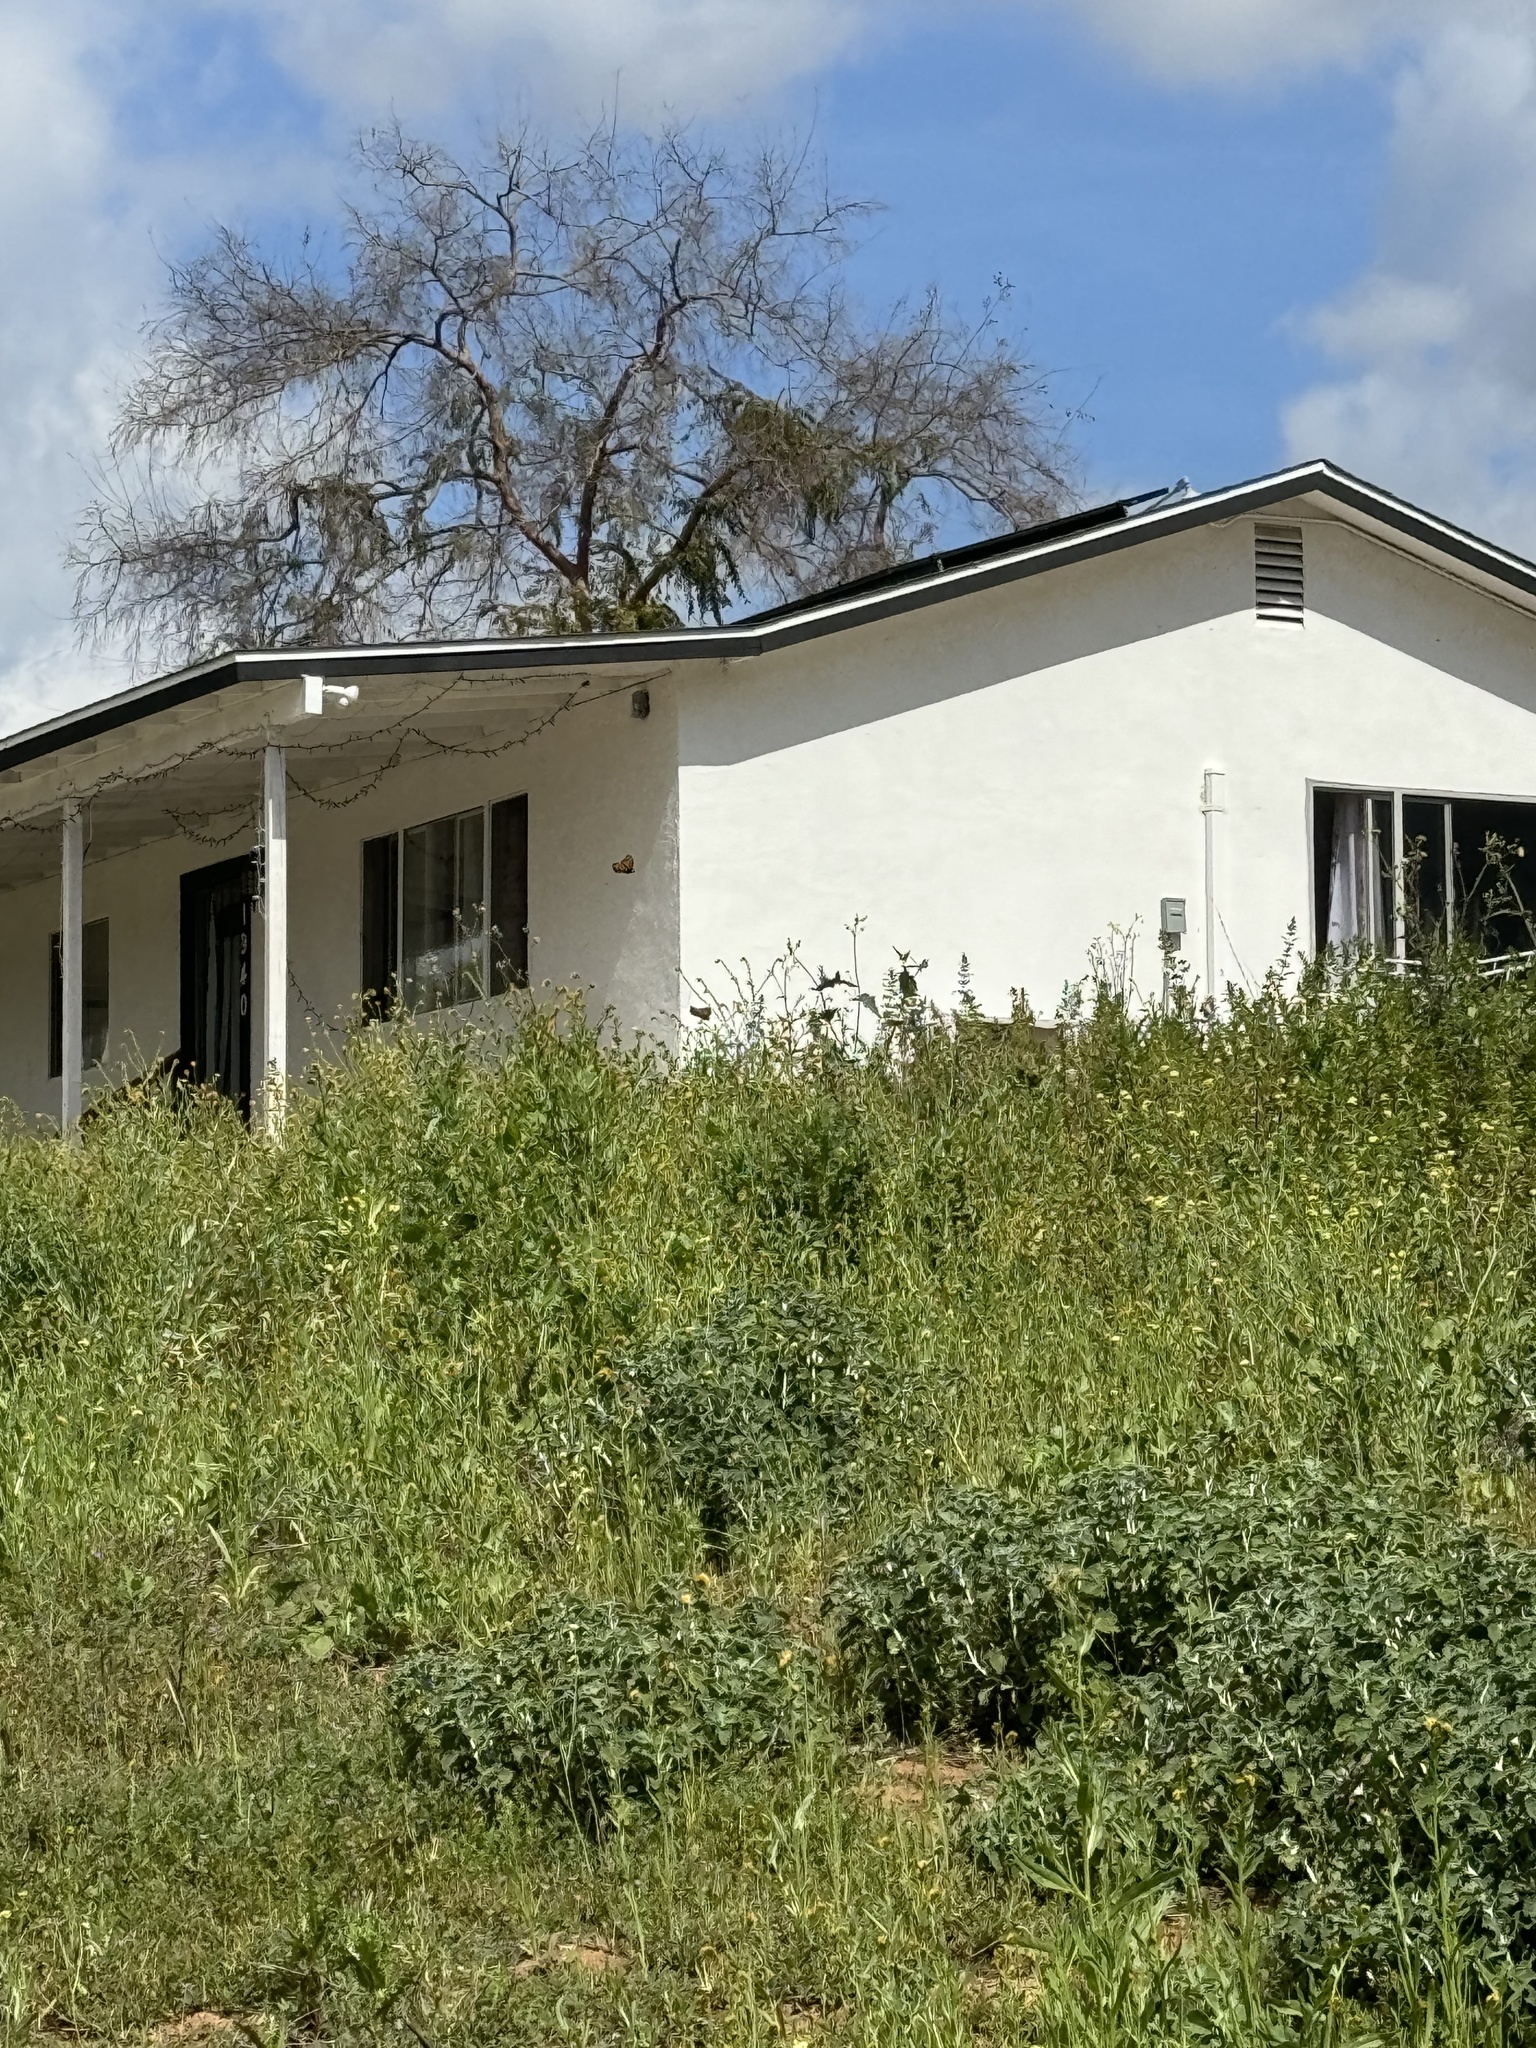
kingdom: Animalia
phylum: Arthropoda
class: Insecta
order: Lepidoptera
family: Nymphalidae
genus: Danaus
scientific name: Danaus plexippus
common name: Monarch
